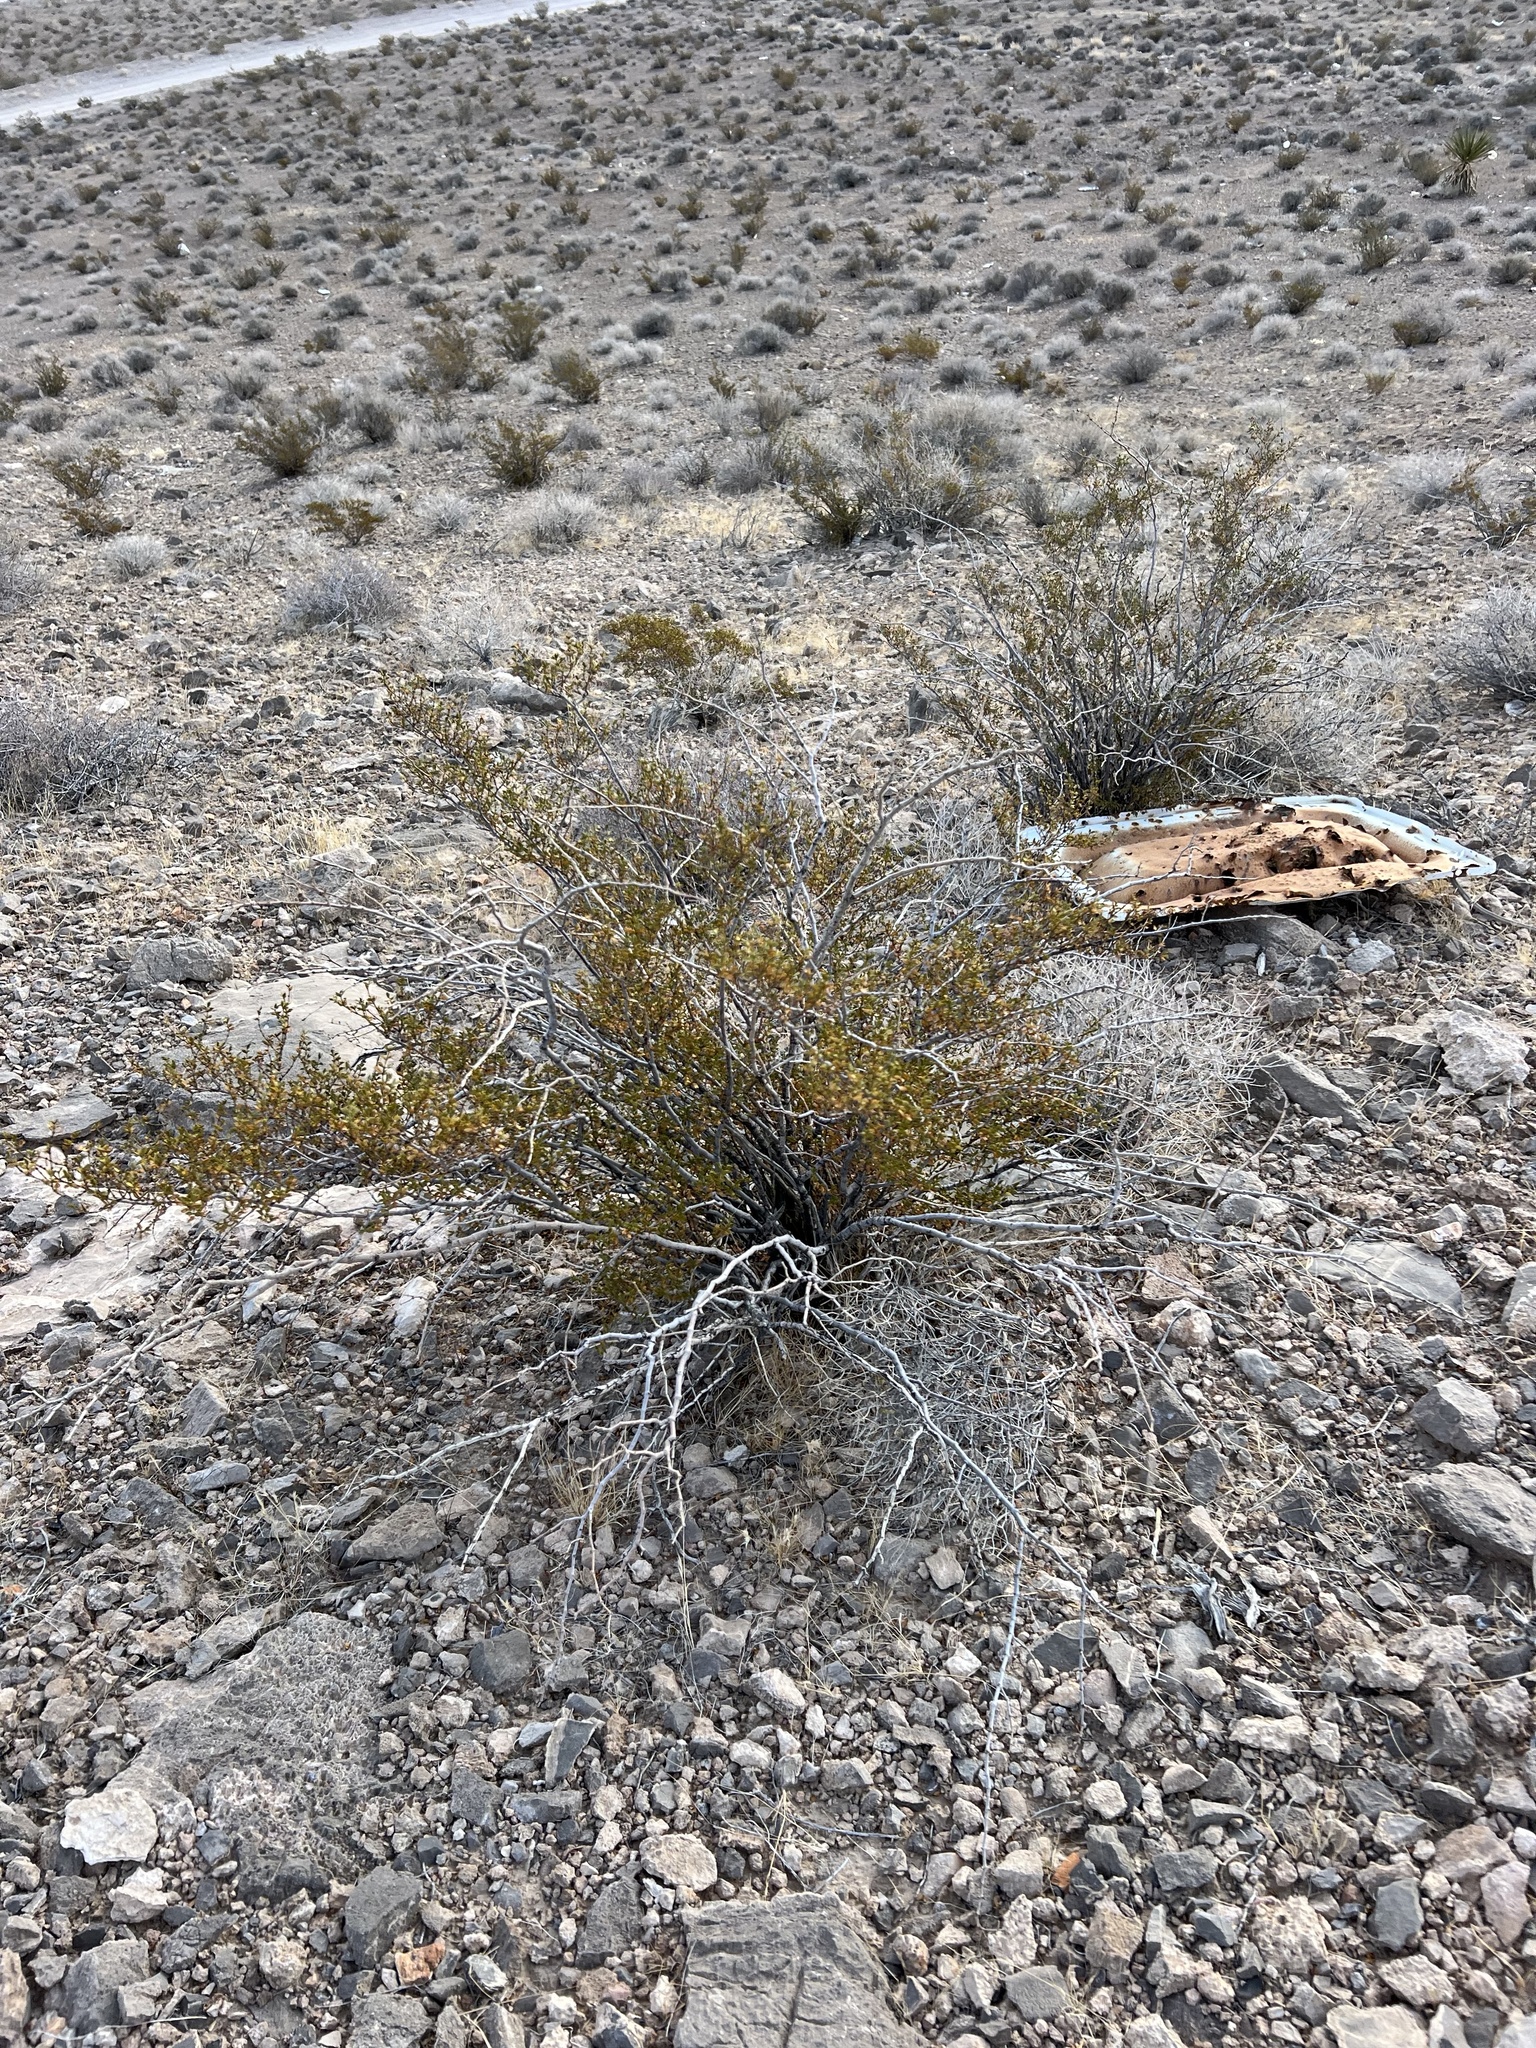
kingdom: Plantae
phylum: Tracheophyta
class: Magnoliopsida
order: Zygophyllales
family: Zygophyllaceae
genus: Larrea
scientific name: Larrea tridentata
